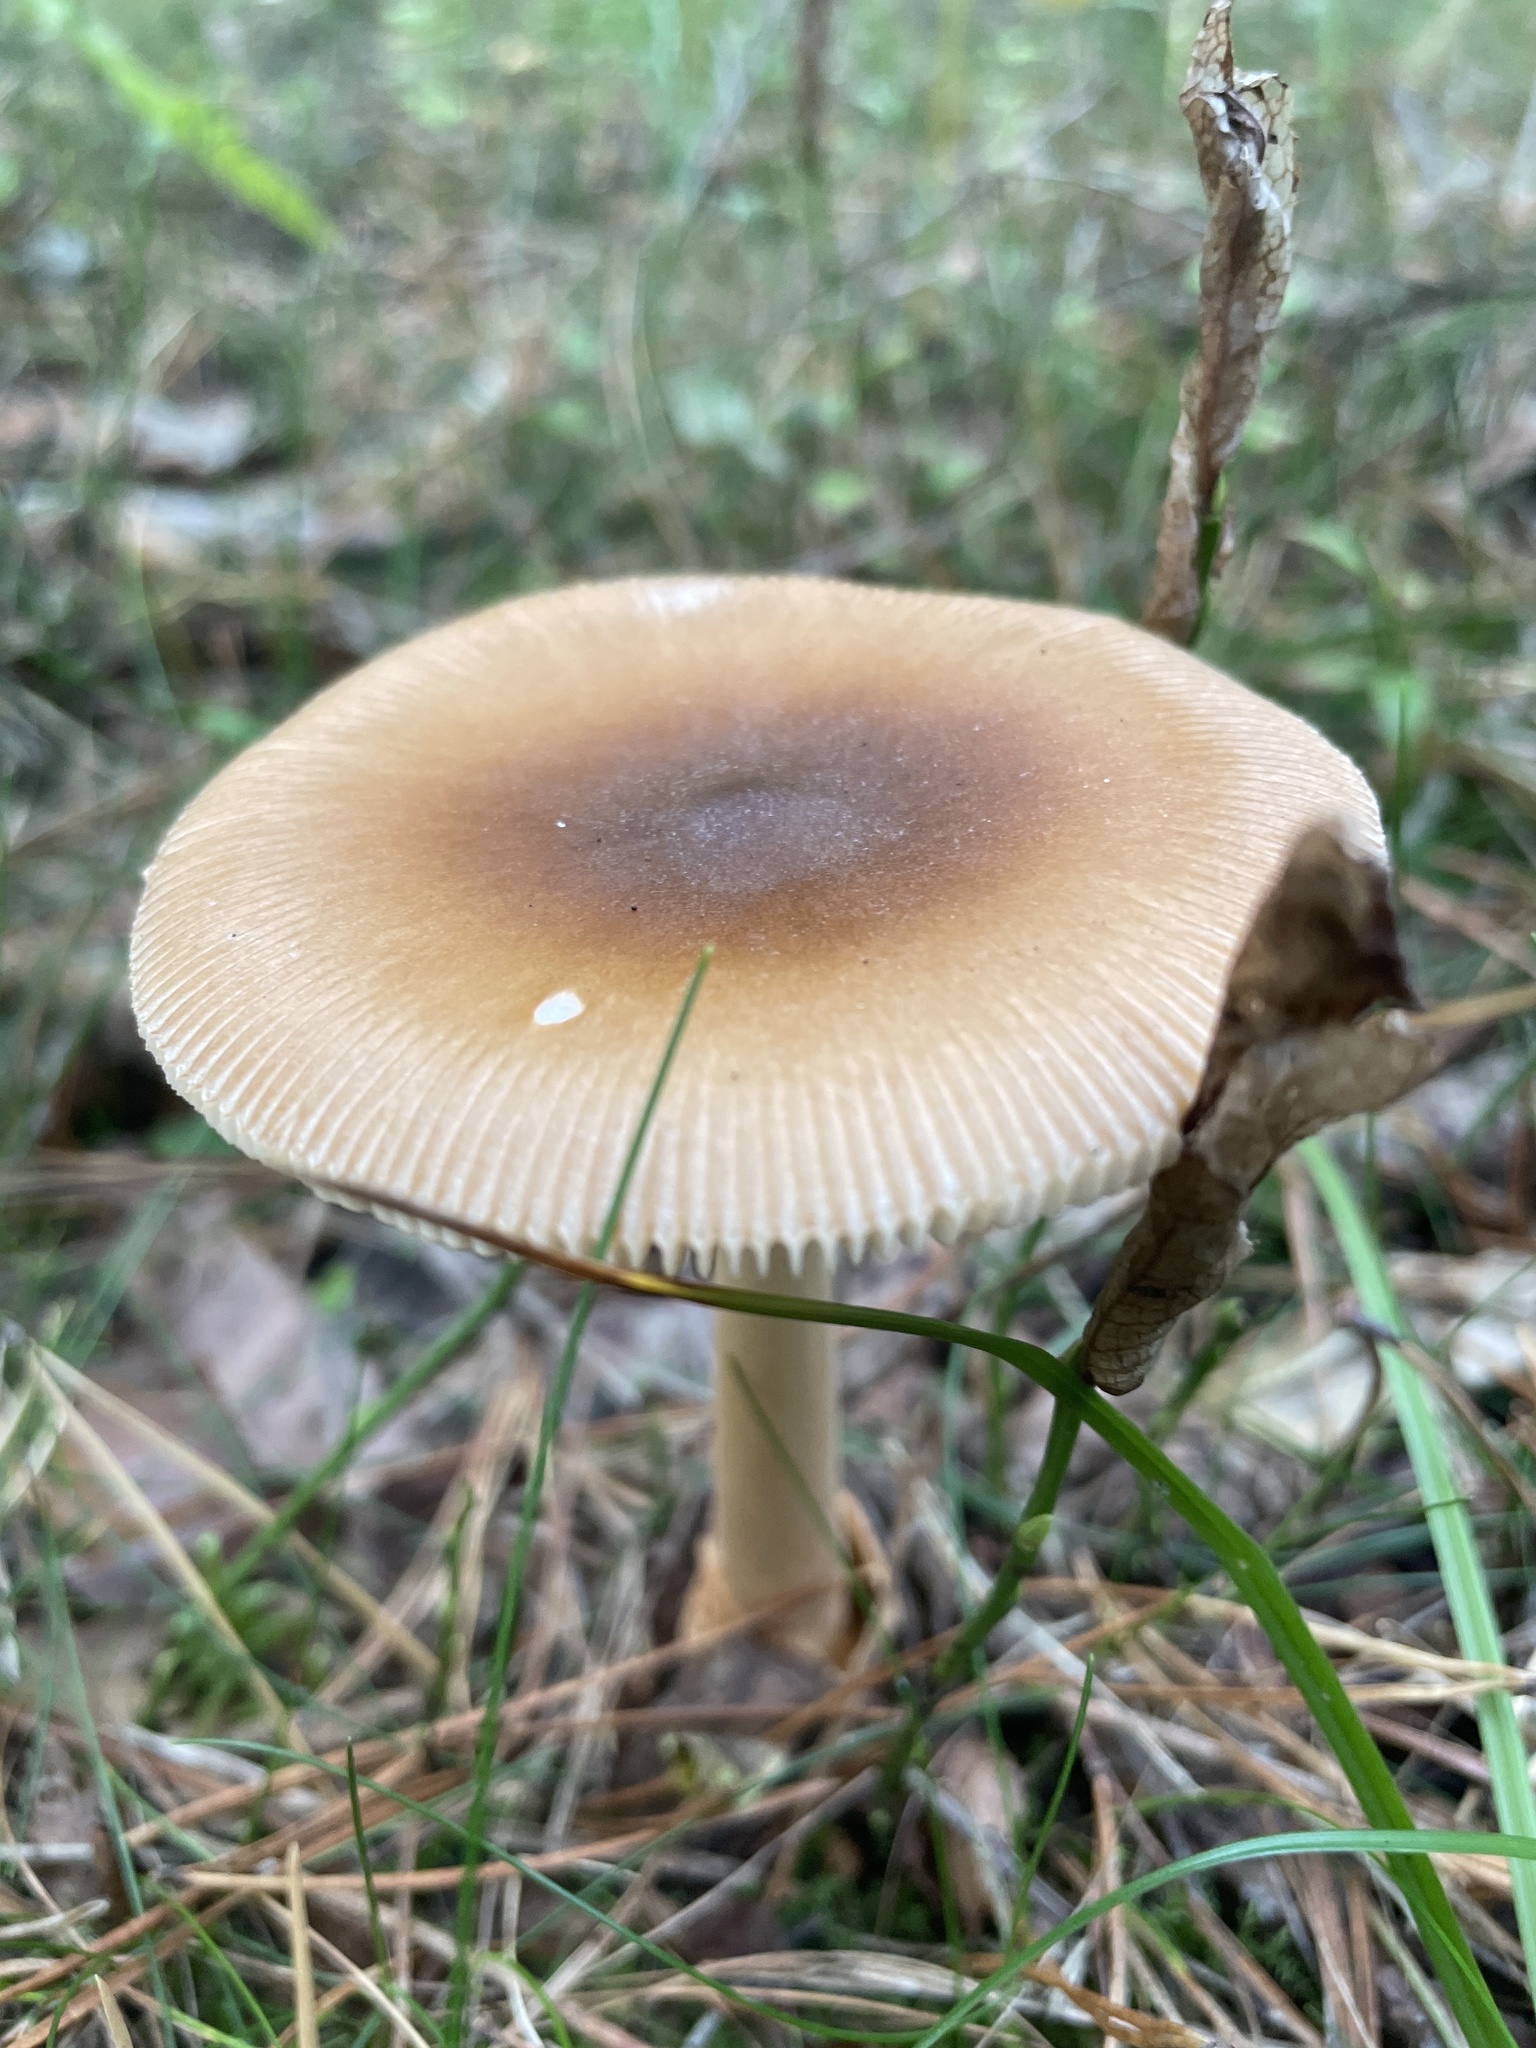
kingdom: Fungi
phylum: Basidiomycota
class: Agaricomycetes
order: Agaricales
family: Amanitaceae
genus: Amanita
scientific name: Amanita fulva
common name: Tawny grisette
